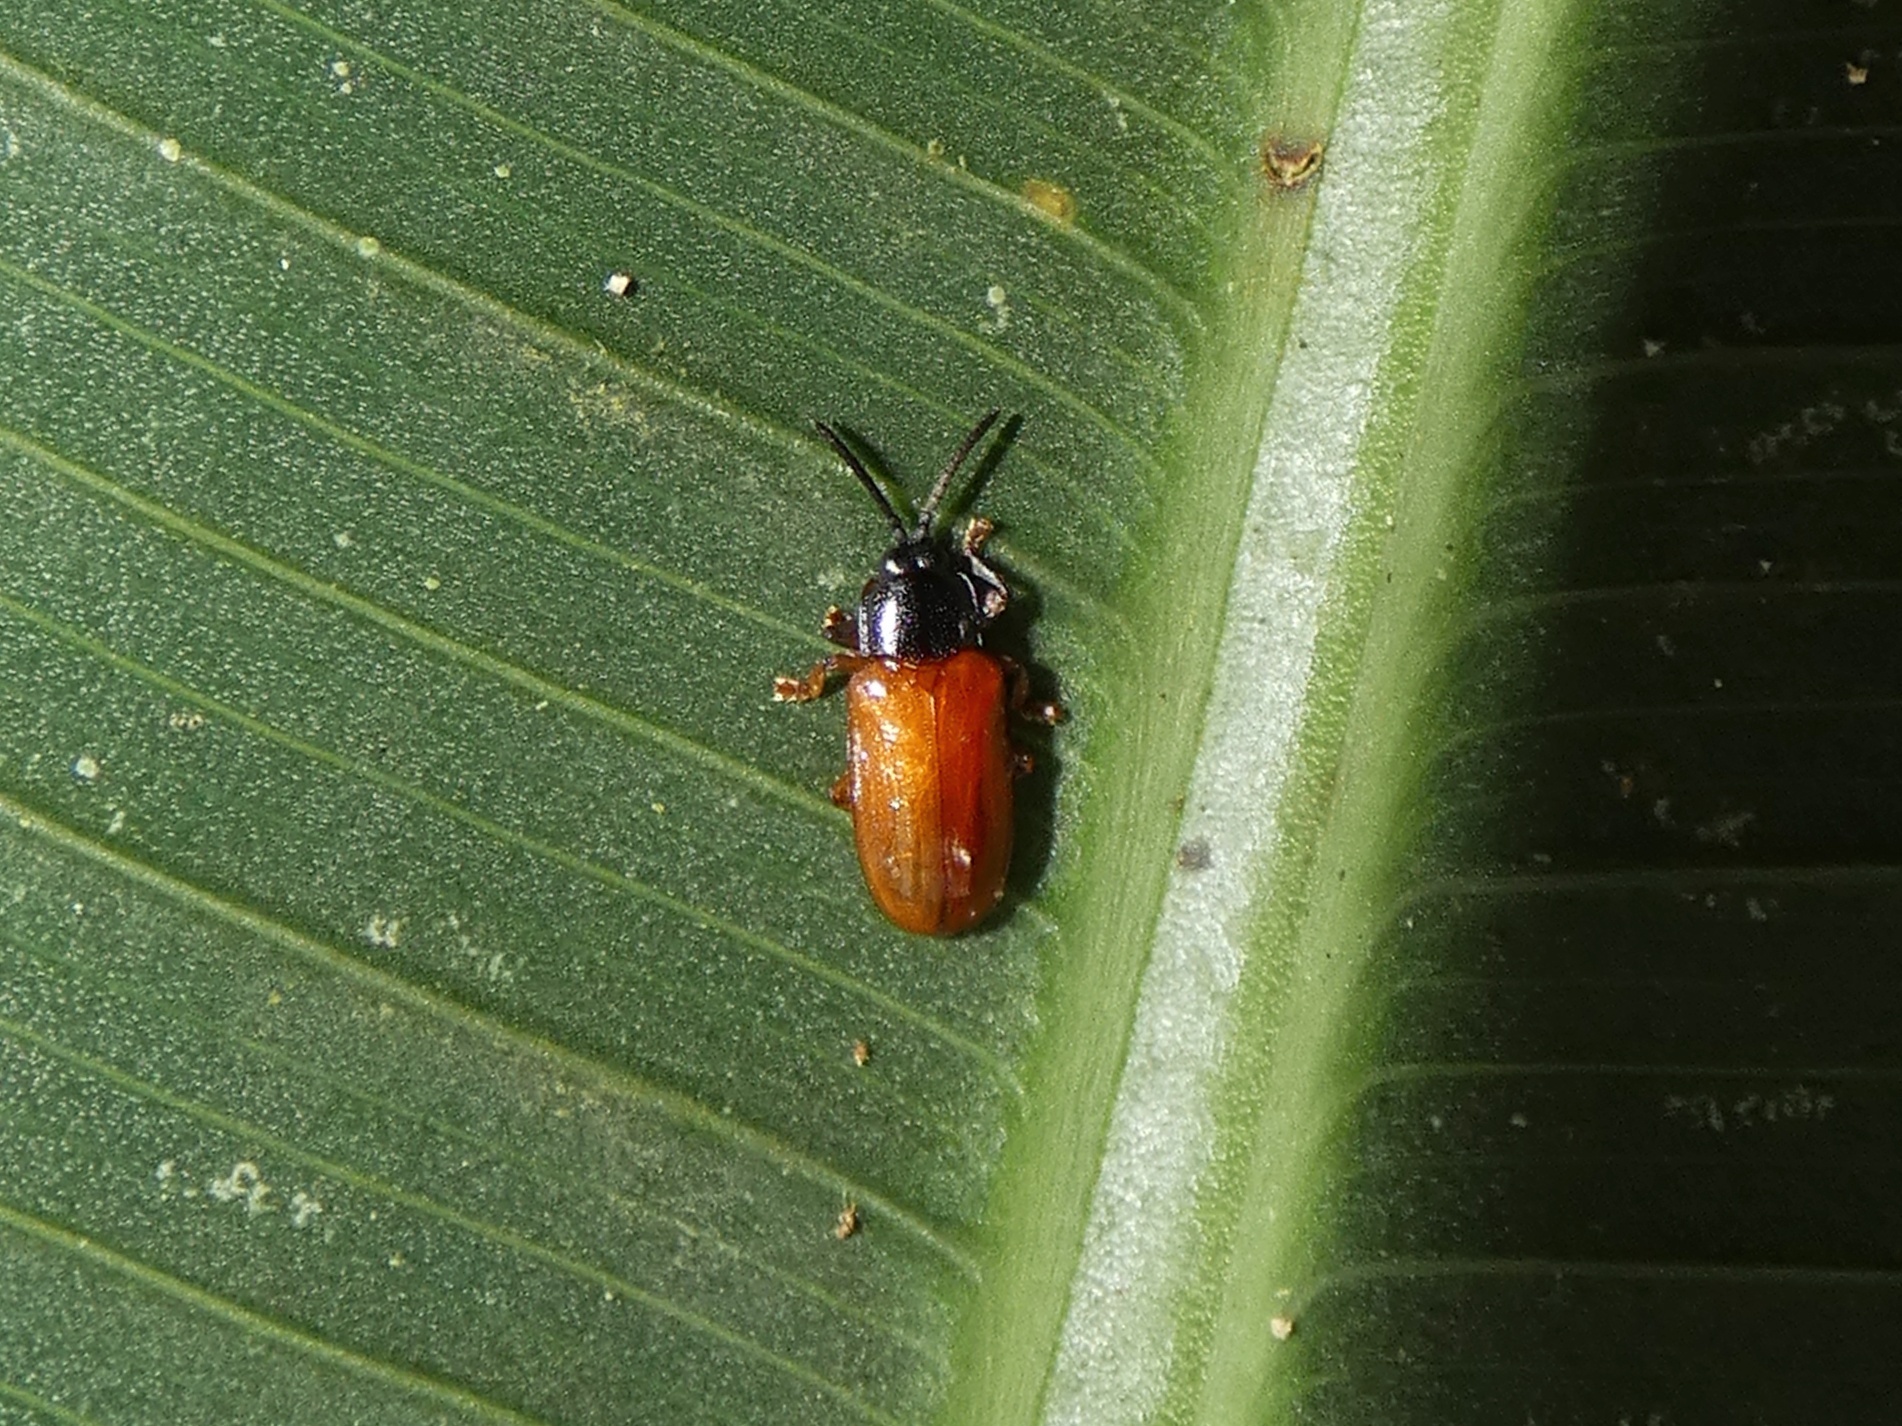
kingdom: Animalia
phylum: Arthropoda
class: Insecta
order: Coleoptera
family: Chrysomelidae
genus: Cephaloleia
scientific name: Cephaloleia neglecta
